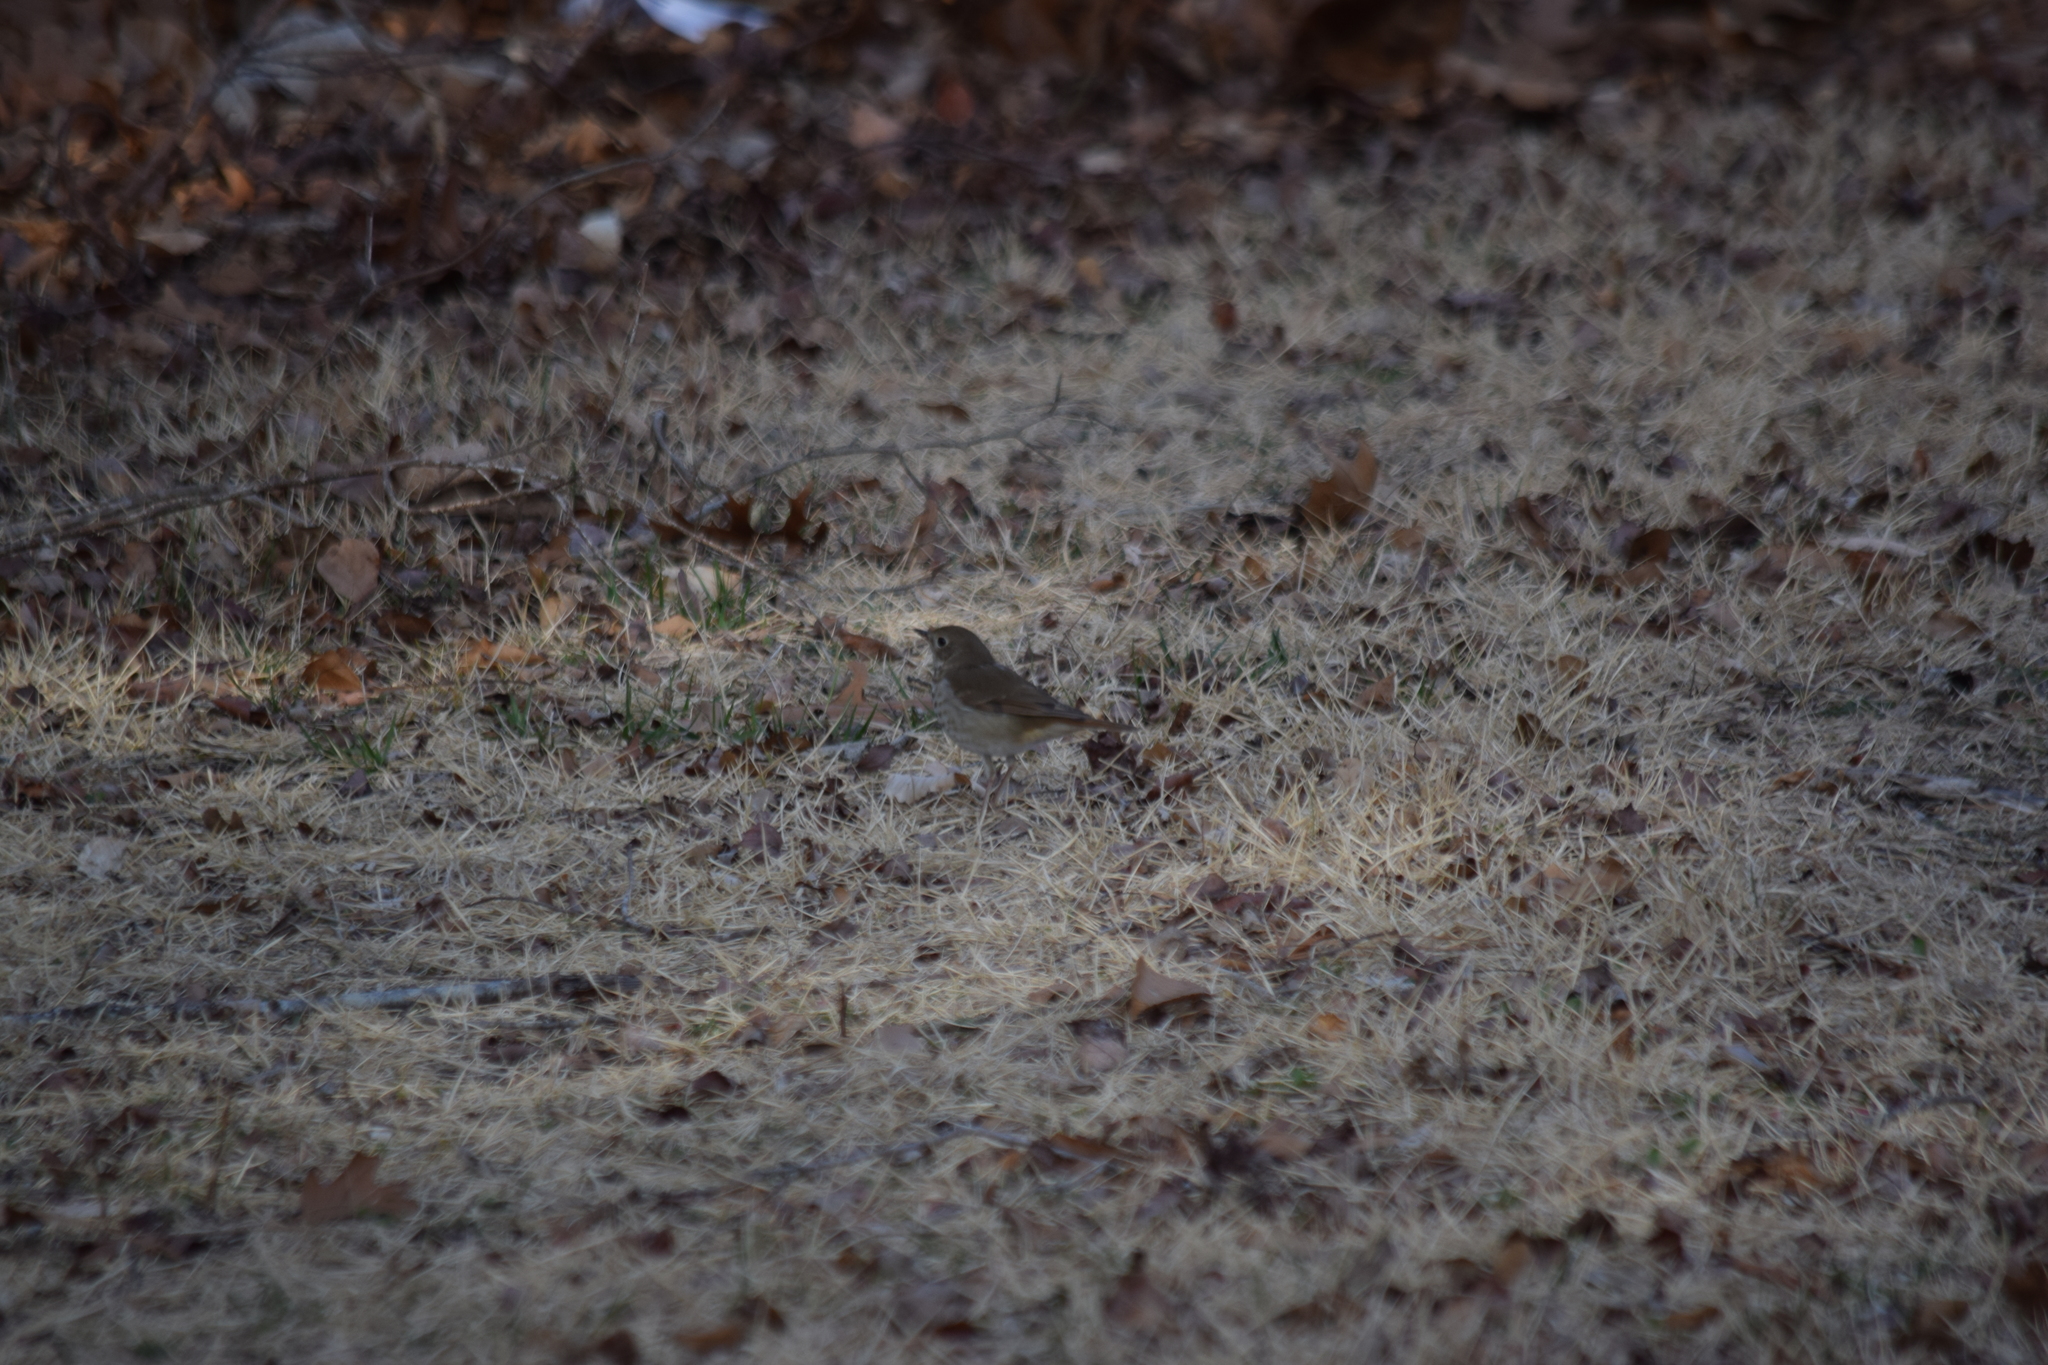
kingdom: Animalia
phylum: Chordata
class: Aves
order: Passeriformes
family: Turdidae
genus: Catharus
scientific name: Catharus guttatus
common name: Hermit thrush
